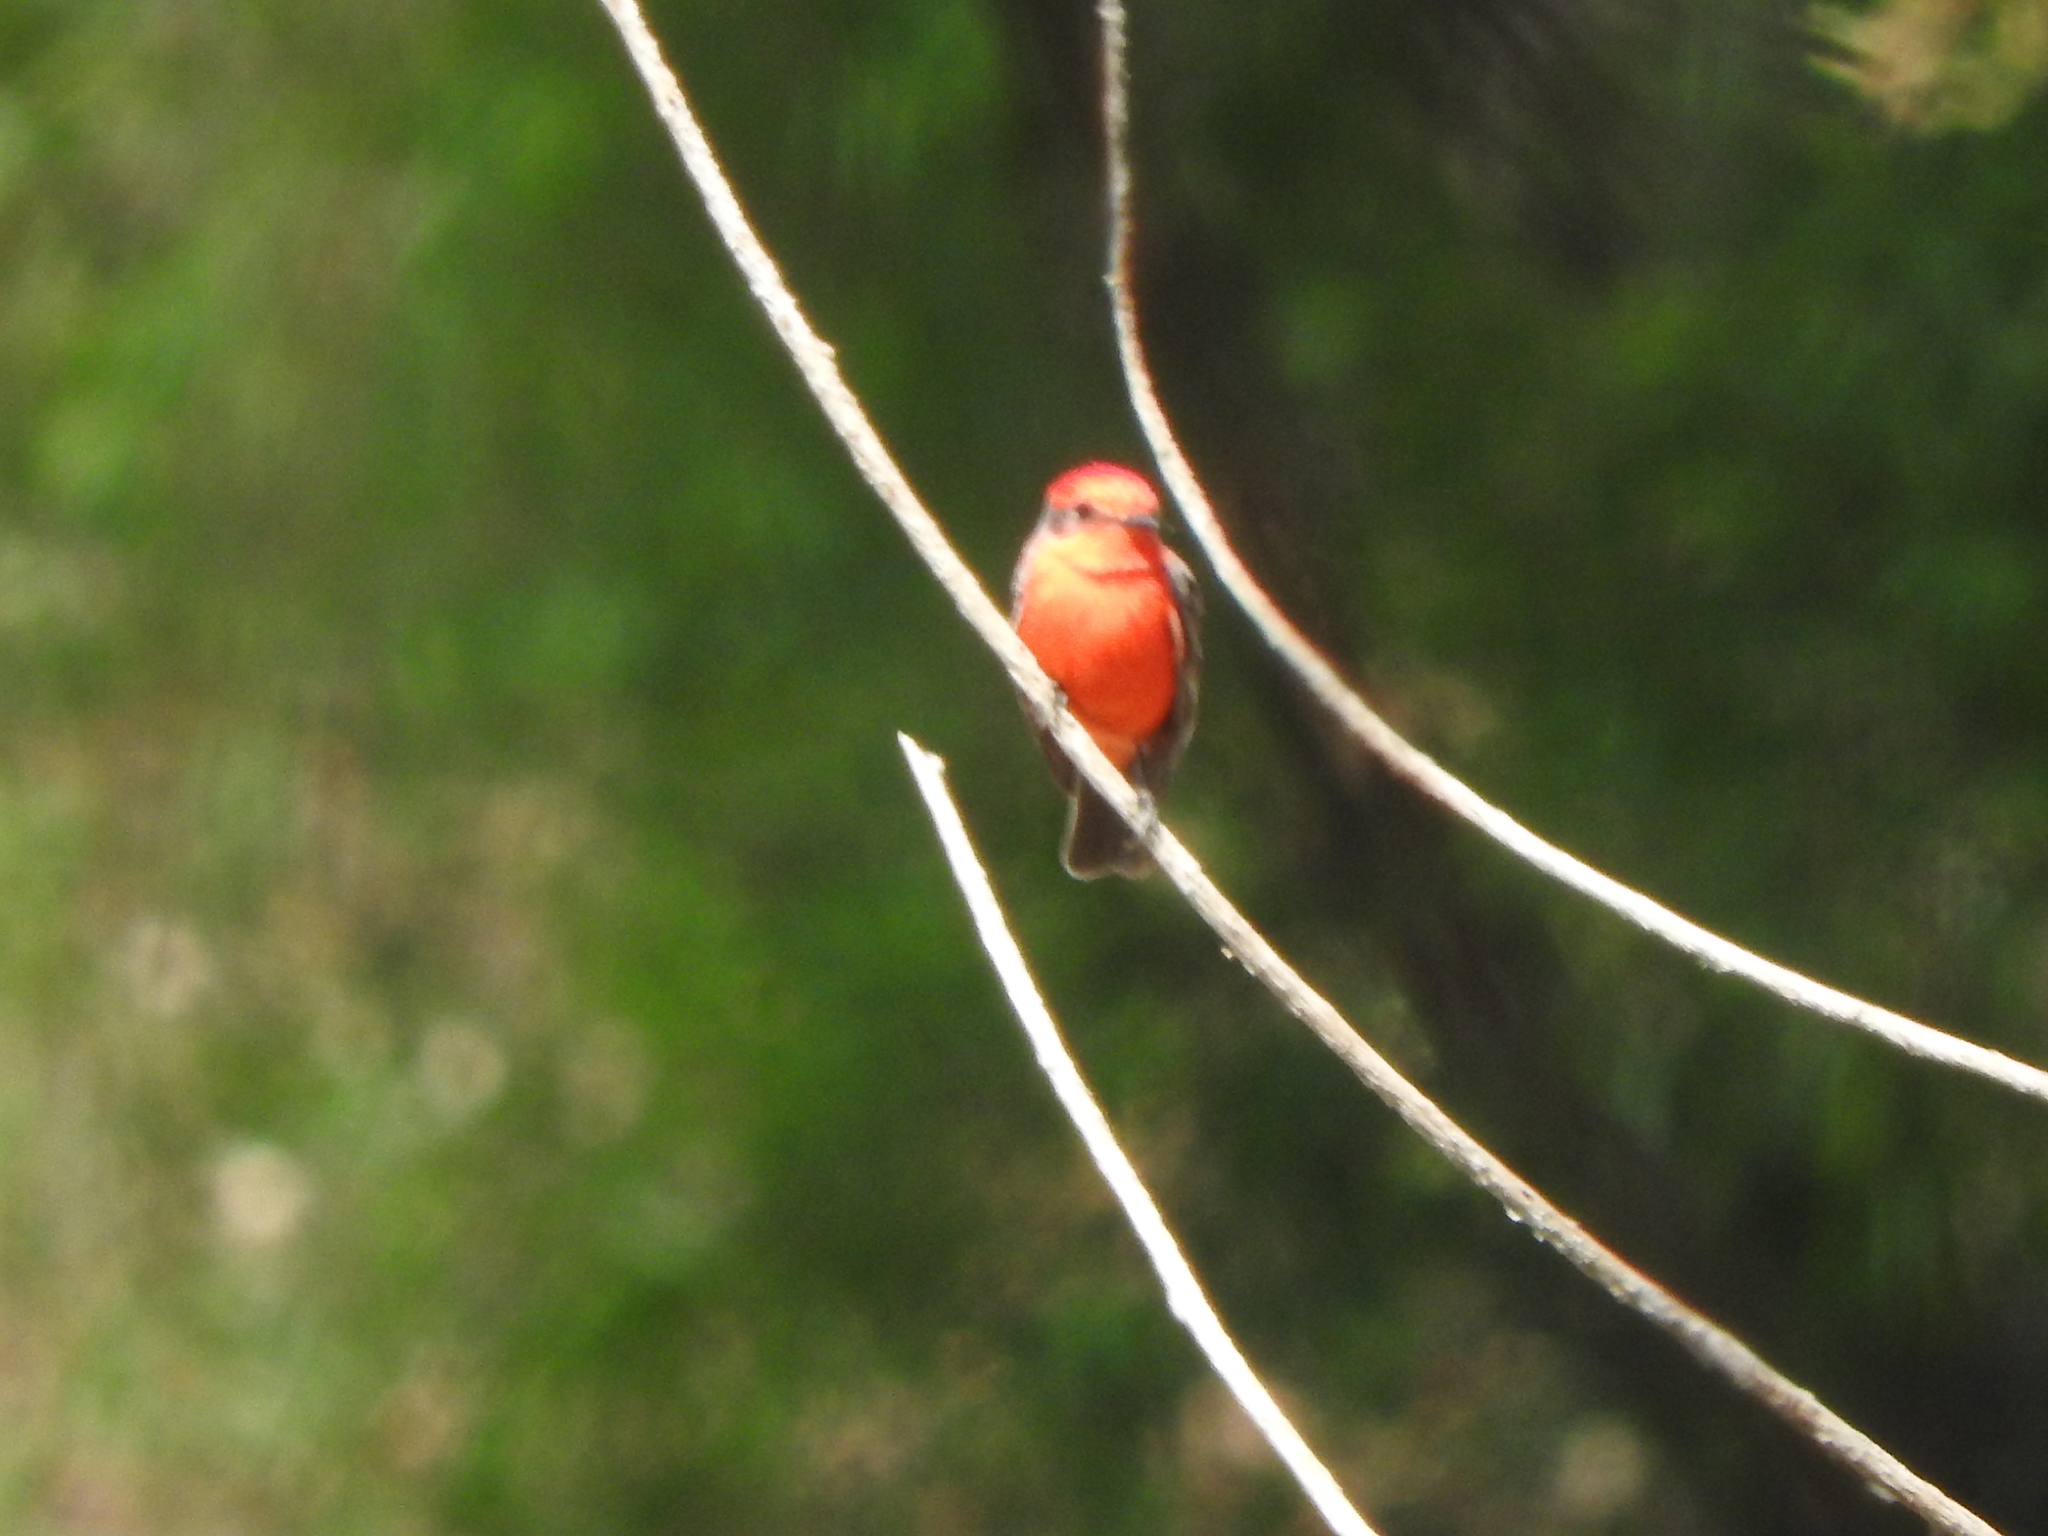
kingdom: Animalia
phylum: Chordata
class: Aves
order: Passeriformes
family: Tyrannidae
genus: Pyrocephalus
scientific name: Pyrocephalus rubinus
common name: Vermilion flycatcher
